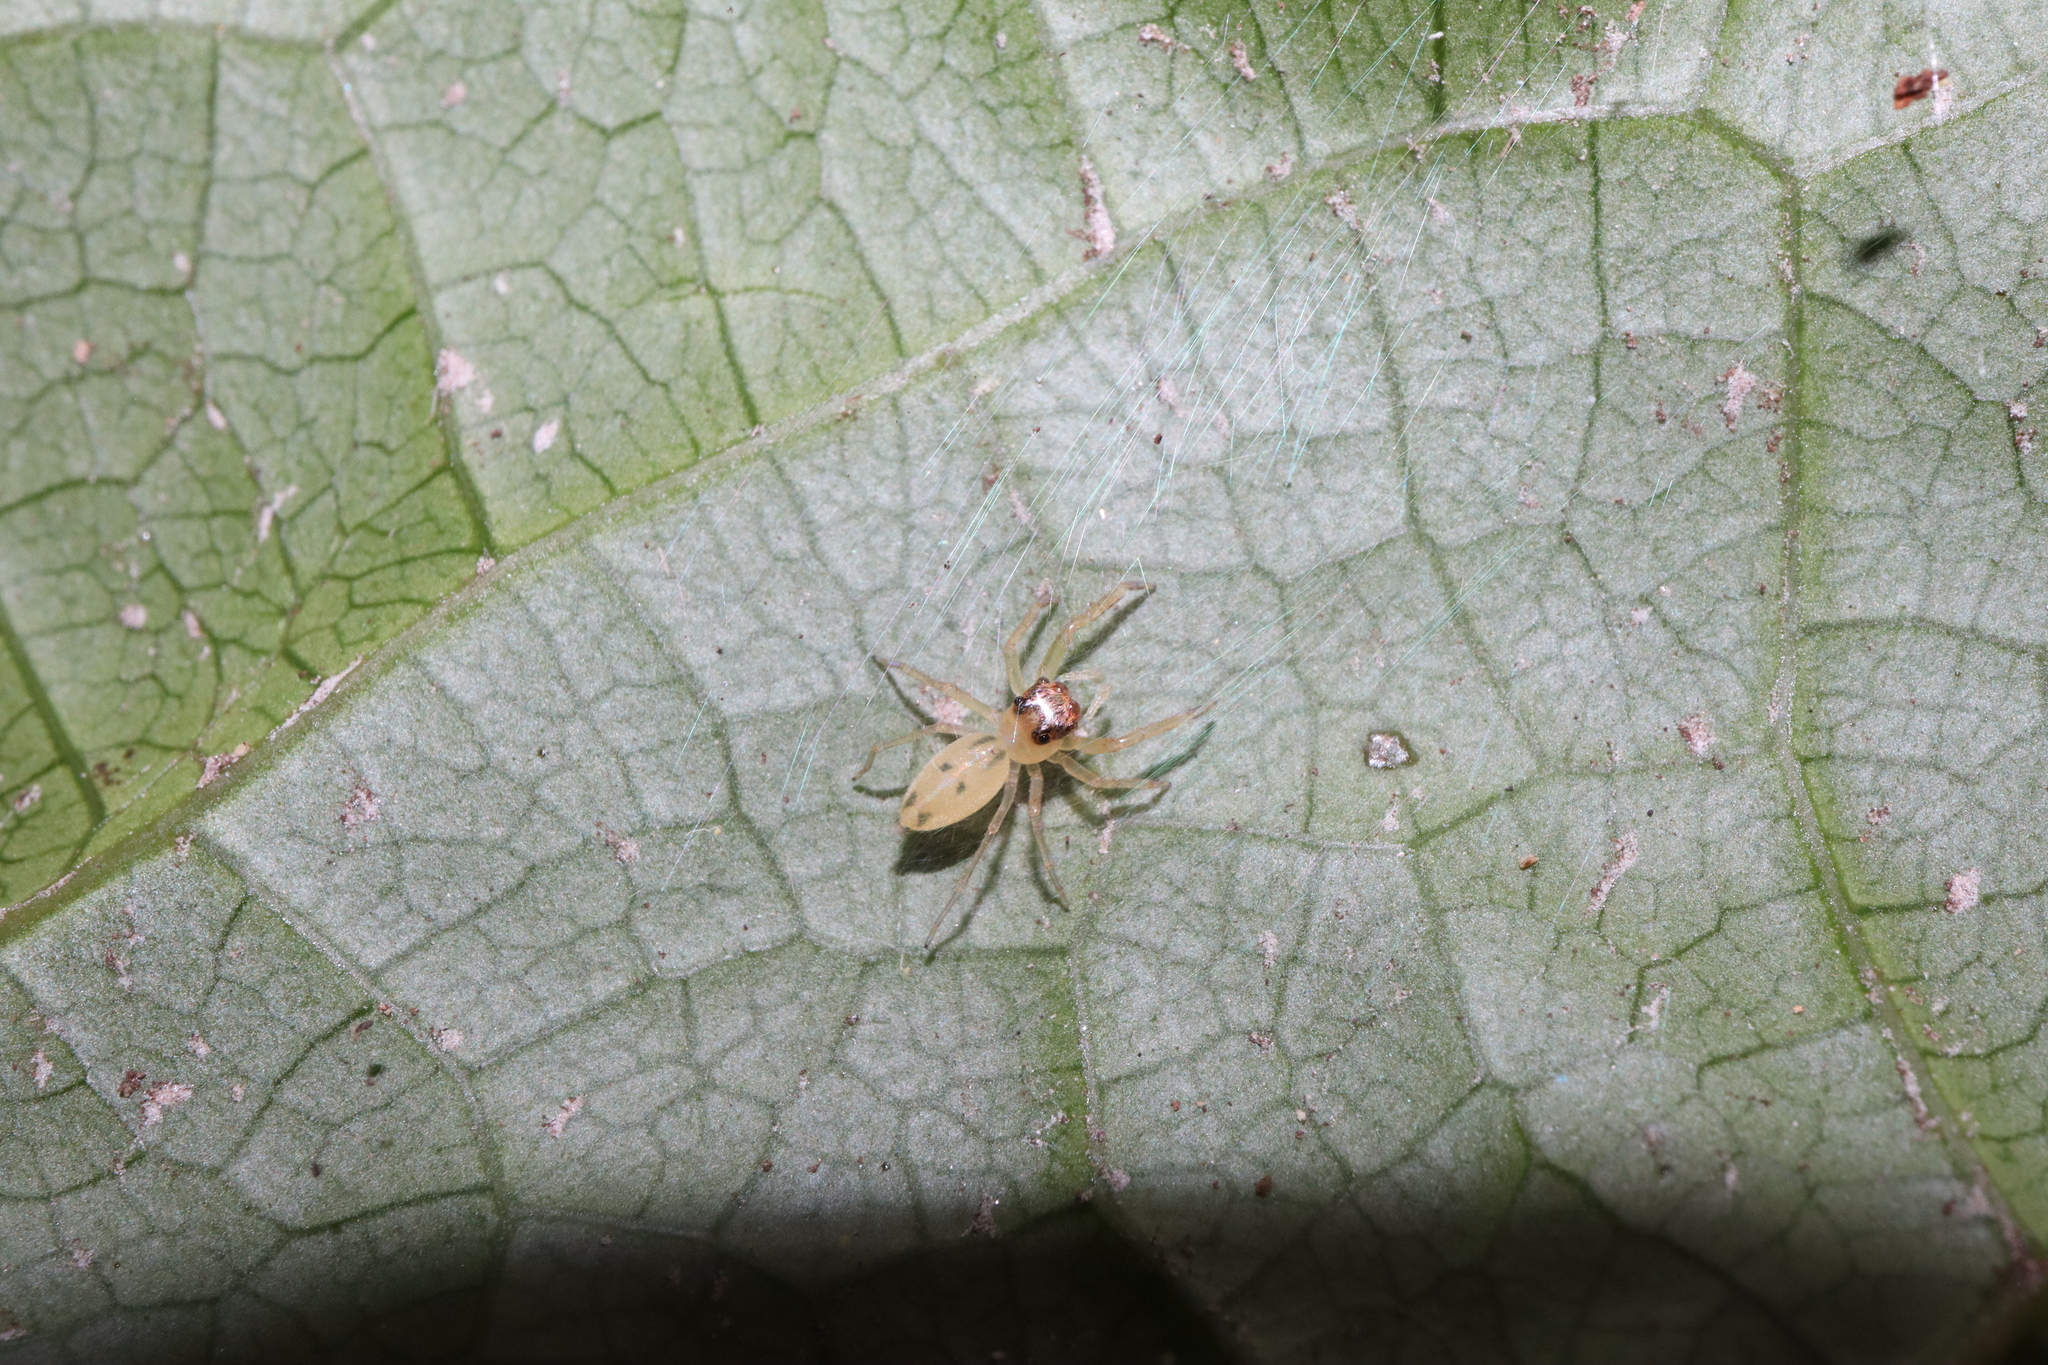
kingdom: Animalia
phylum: Arthropoda
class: Arachnida
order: Araneae
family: Salticidae
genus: Astilodes
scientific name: Astilodes mariae
